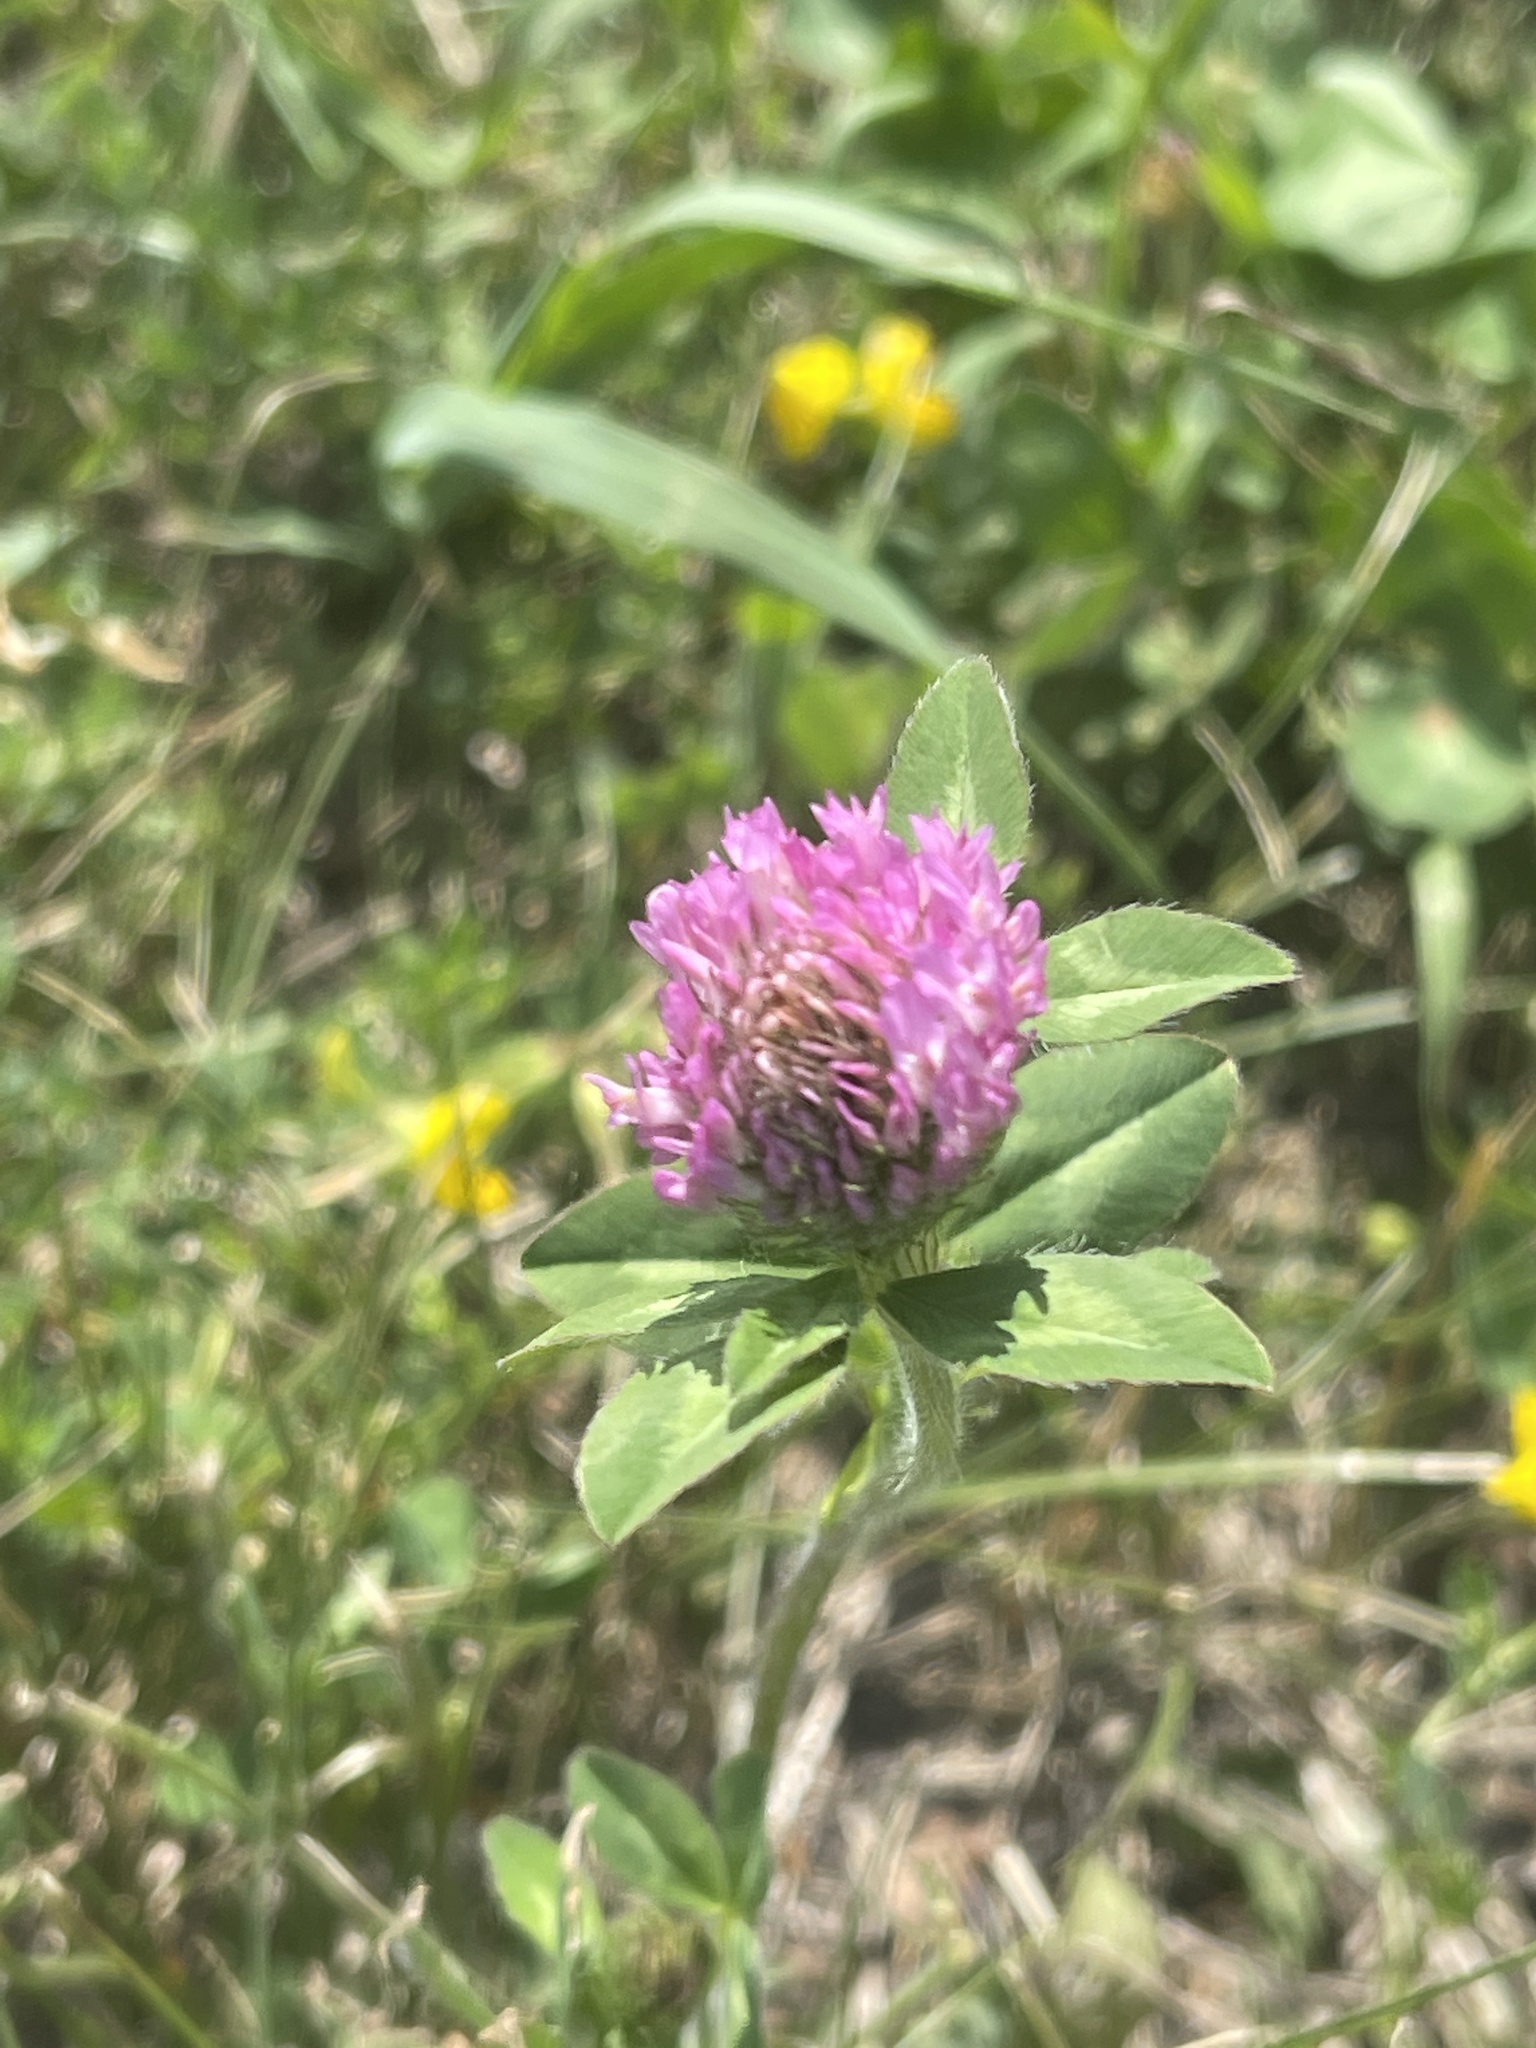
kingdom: Plantae
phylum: Tracheophyta
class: Magnoliopsida
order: Fabales
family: Fabaceae
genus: Trifolium
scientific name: Trifolium pratense
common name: Red clover
